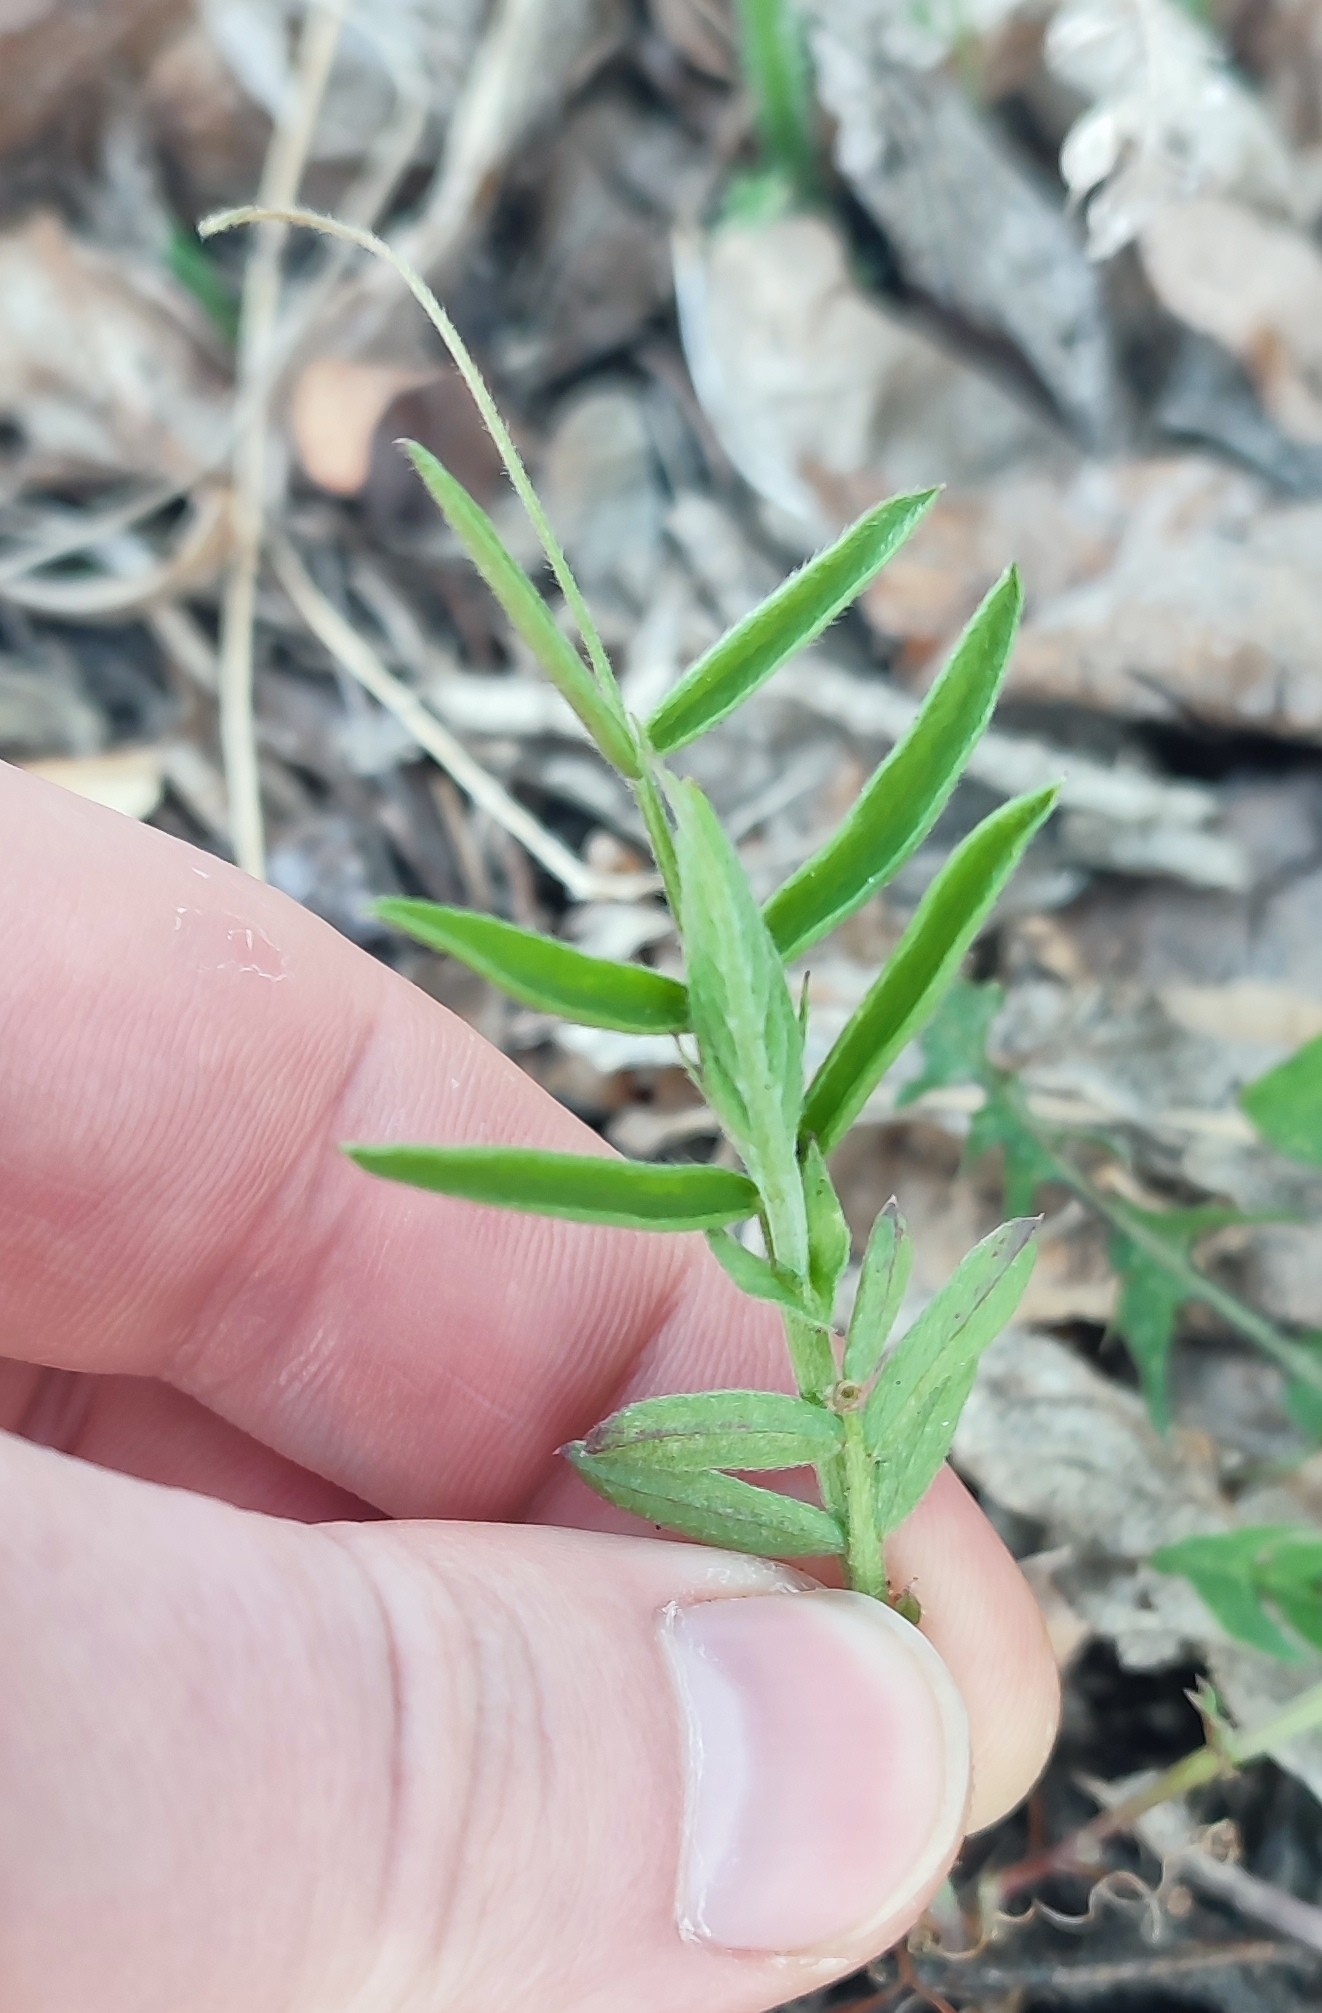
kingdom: Plantae
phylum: Tracheophyta
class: Magnoliopsida
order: Fabales
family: Fabaceae
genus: Vicia
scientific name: Vicia cracca
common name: Bird vetch
